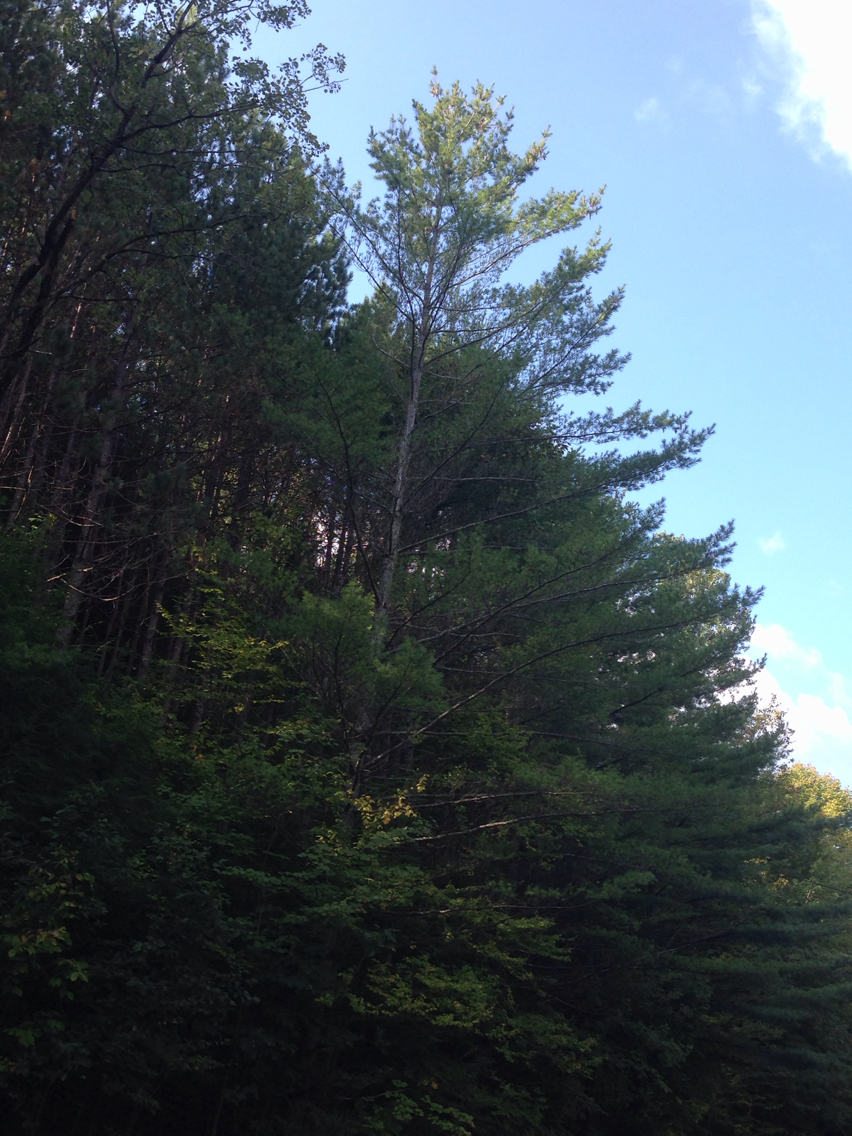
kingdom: Plantae
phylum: Tracheophyta
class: Pinopsida
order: Pinales
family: Pinaceae
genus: Pinus
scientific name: Pinus strobus
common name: Weymouth pine
